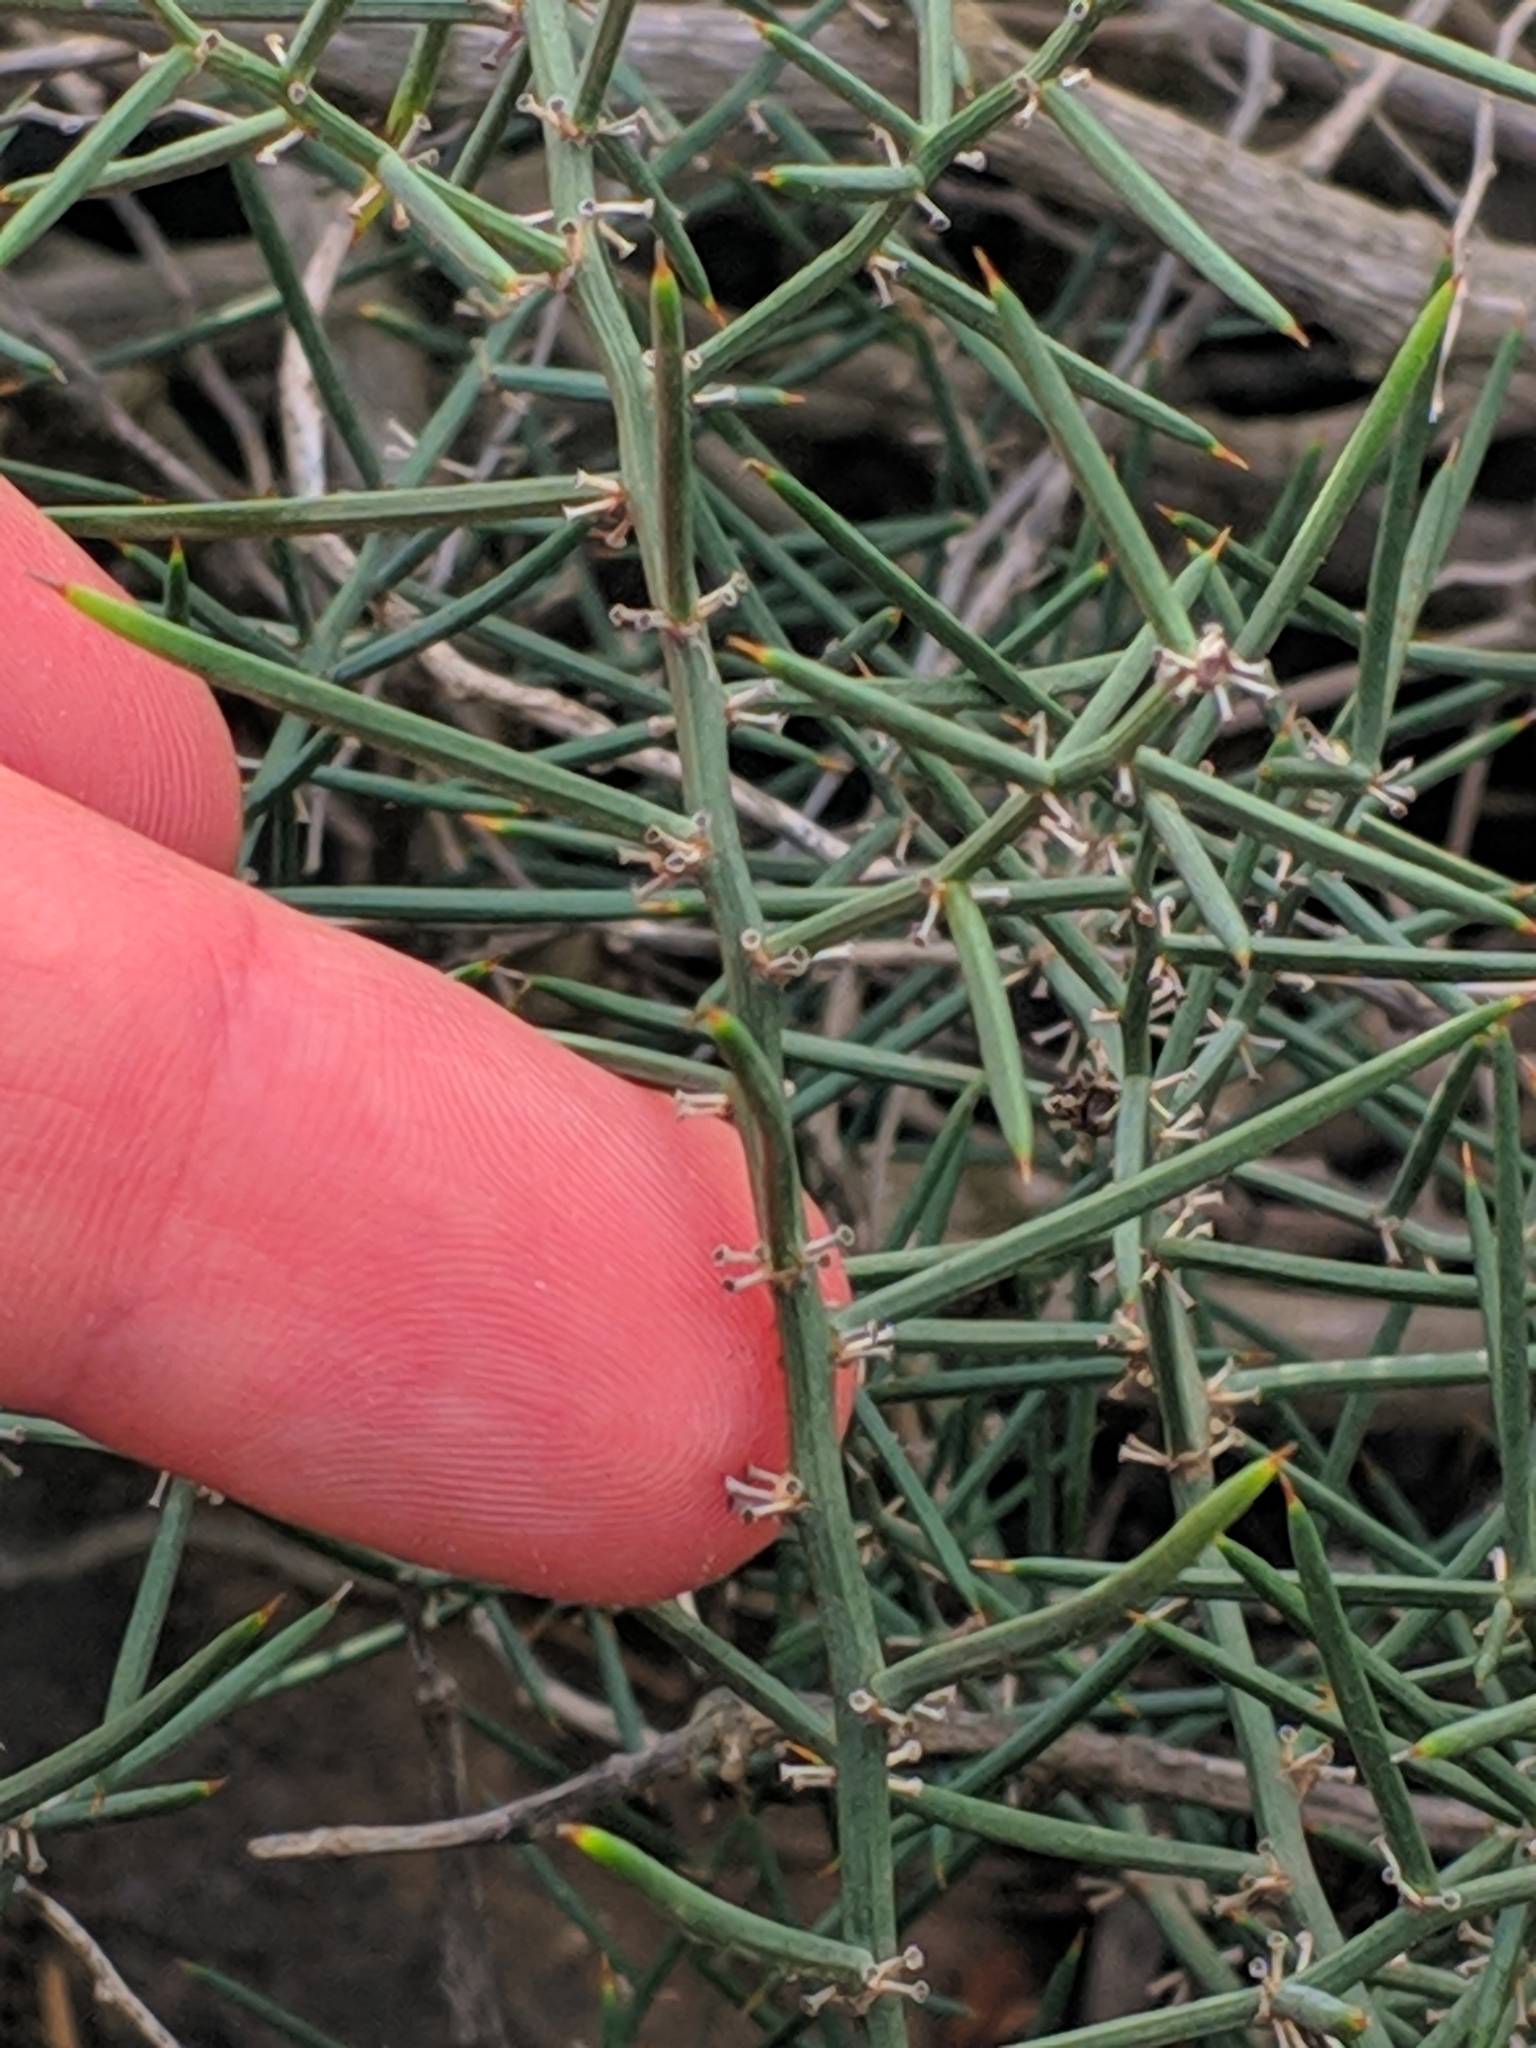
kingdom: Plantae
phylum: Tracheophyta
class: Liliopsida
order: Asparagales
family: Asparagaceae
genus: Asparagus
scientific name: Asparagus horridus
